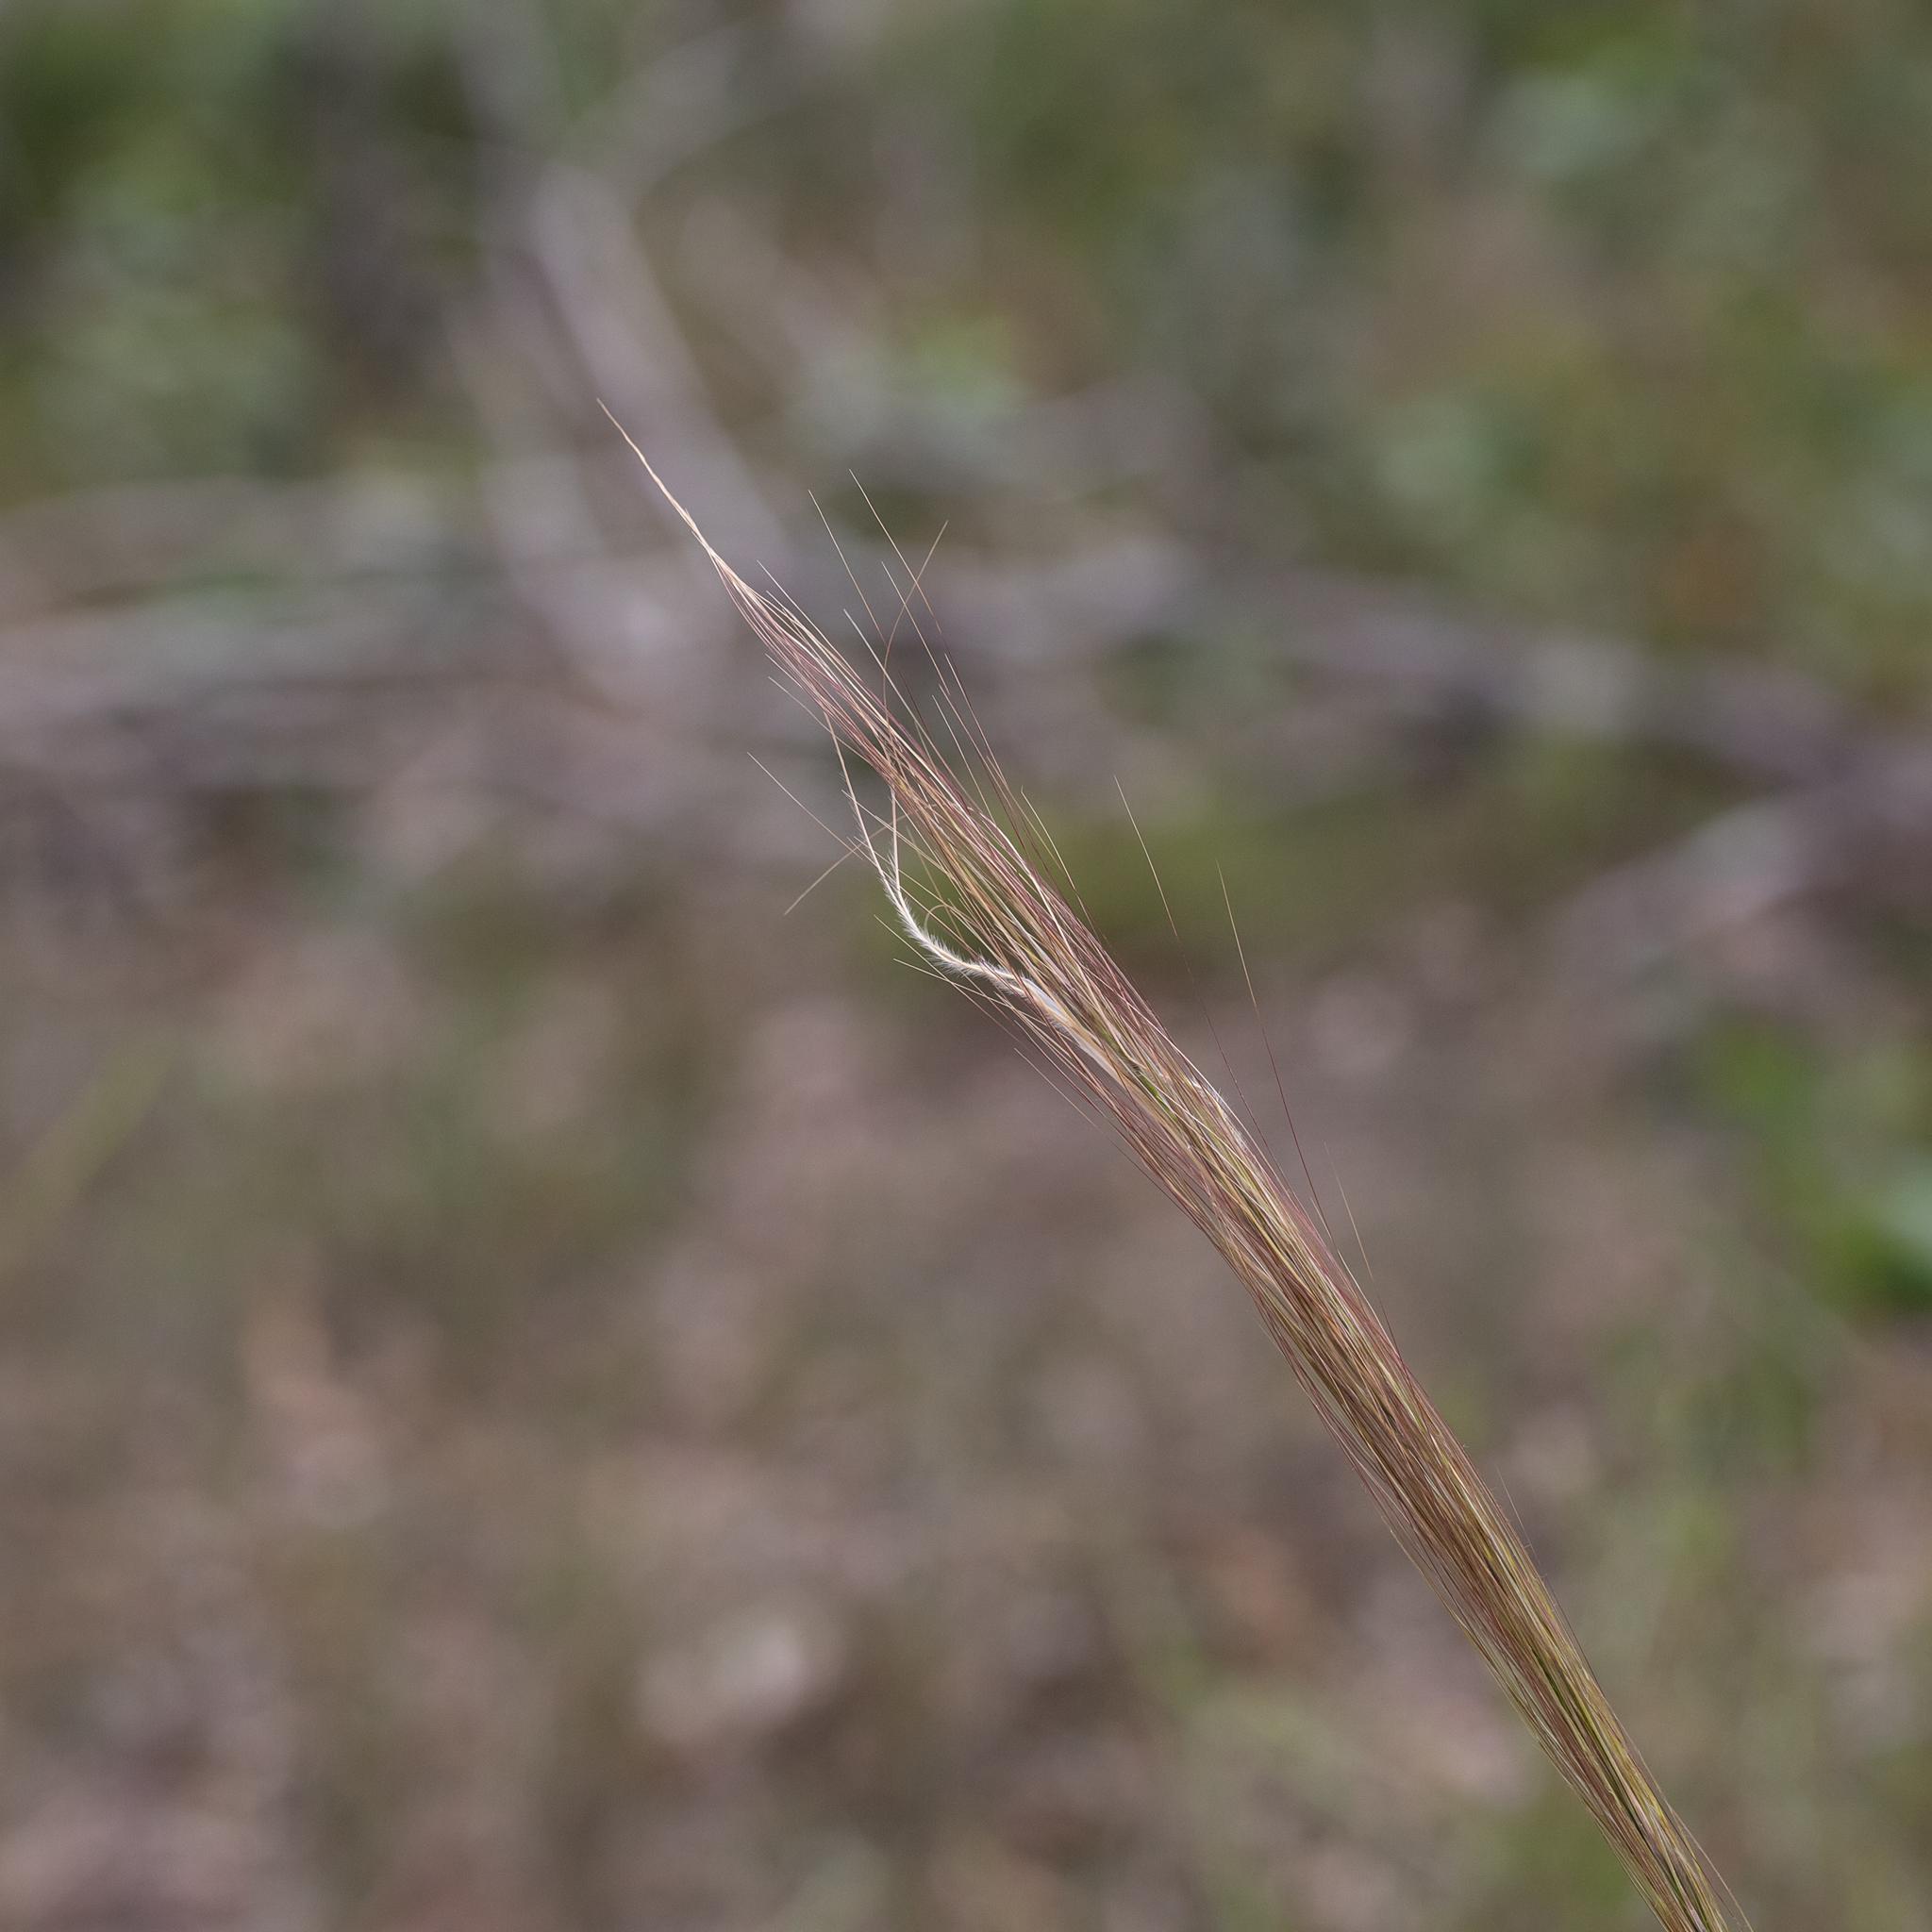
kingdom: Plantae
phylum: Tracheophyta
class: Liliopsida
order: Poales
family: Poaceae
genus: Austrostipa
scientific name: Austrostipa mollis
